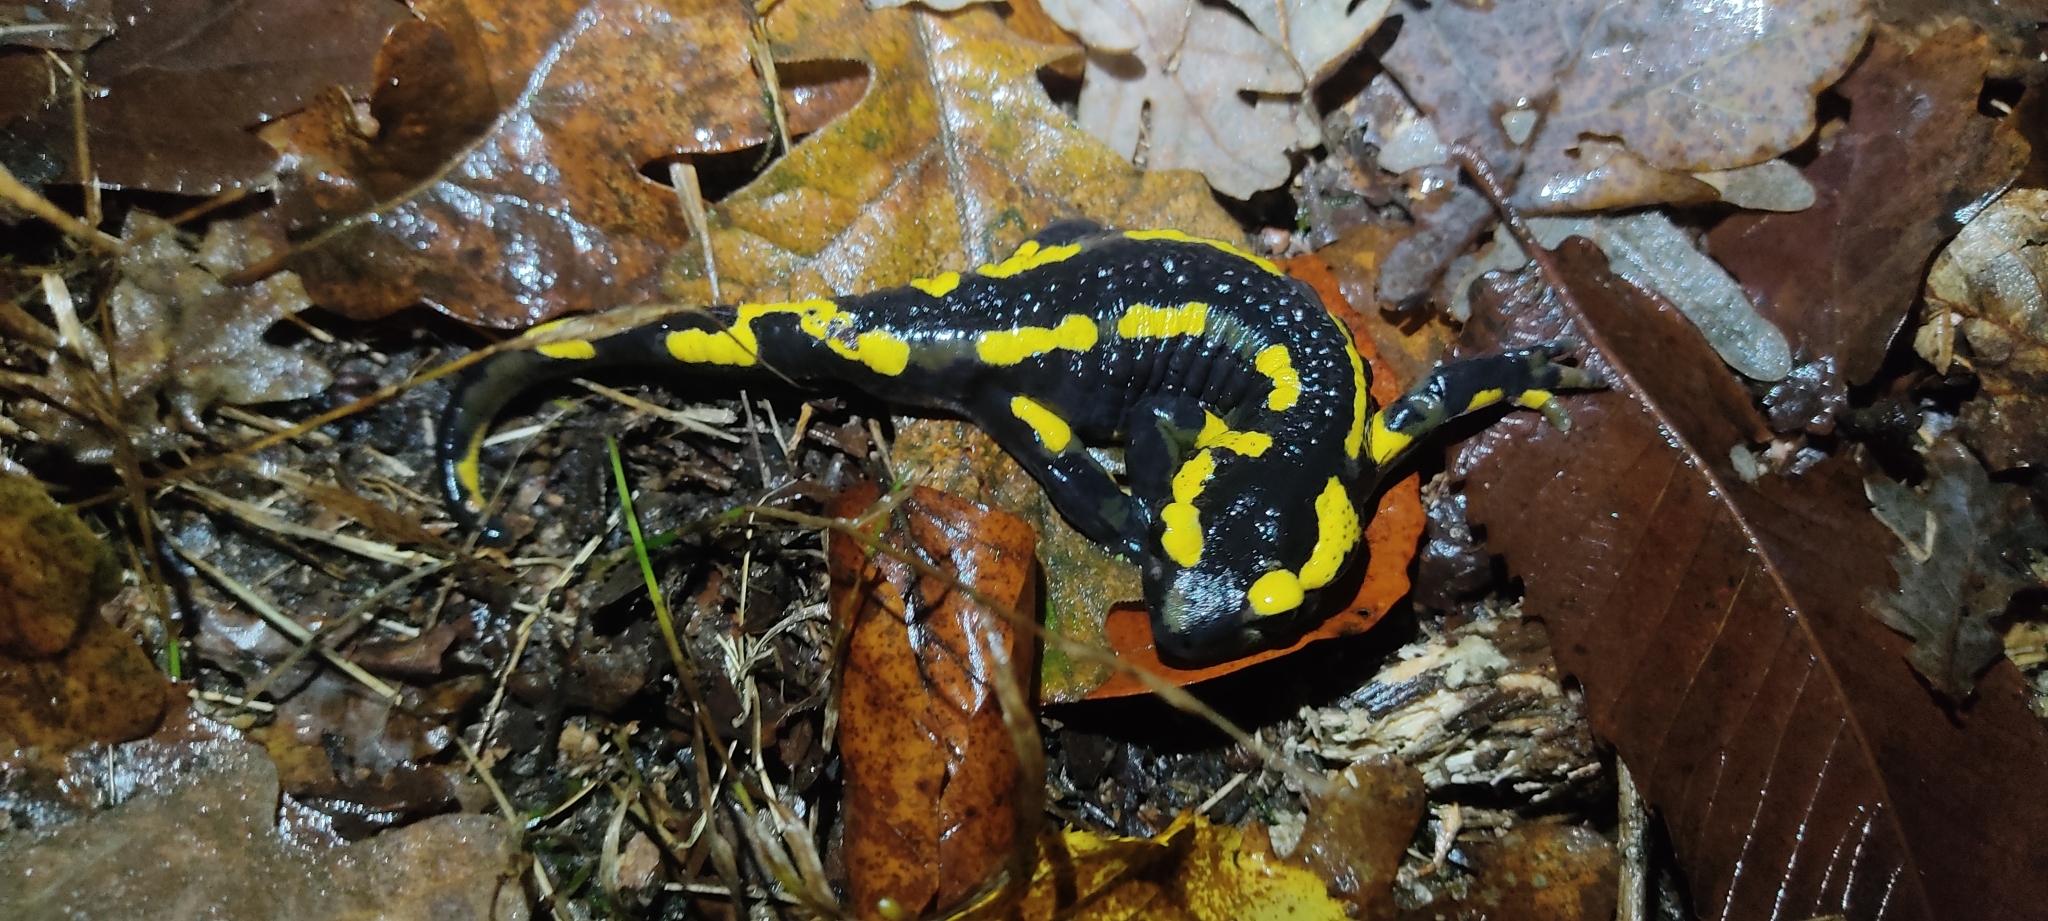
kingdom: Animalia
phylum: Chordata
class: Amphibia
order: Caudata
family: Salamandridae
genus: Salamandra
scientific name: Salamandra salamandra
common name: Fire salamander
